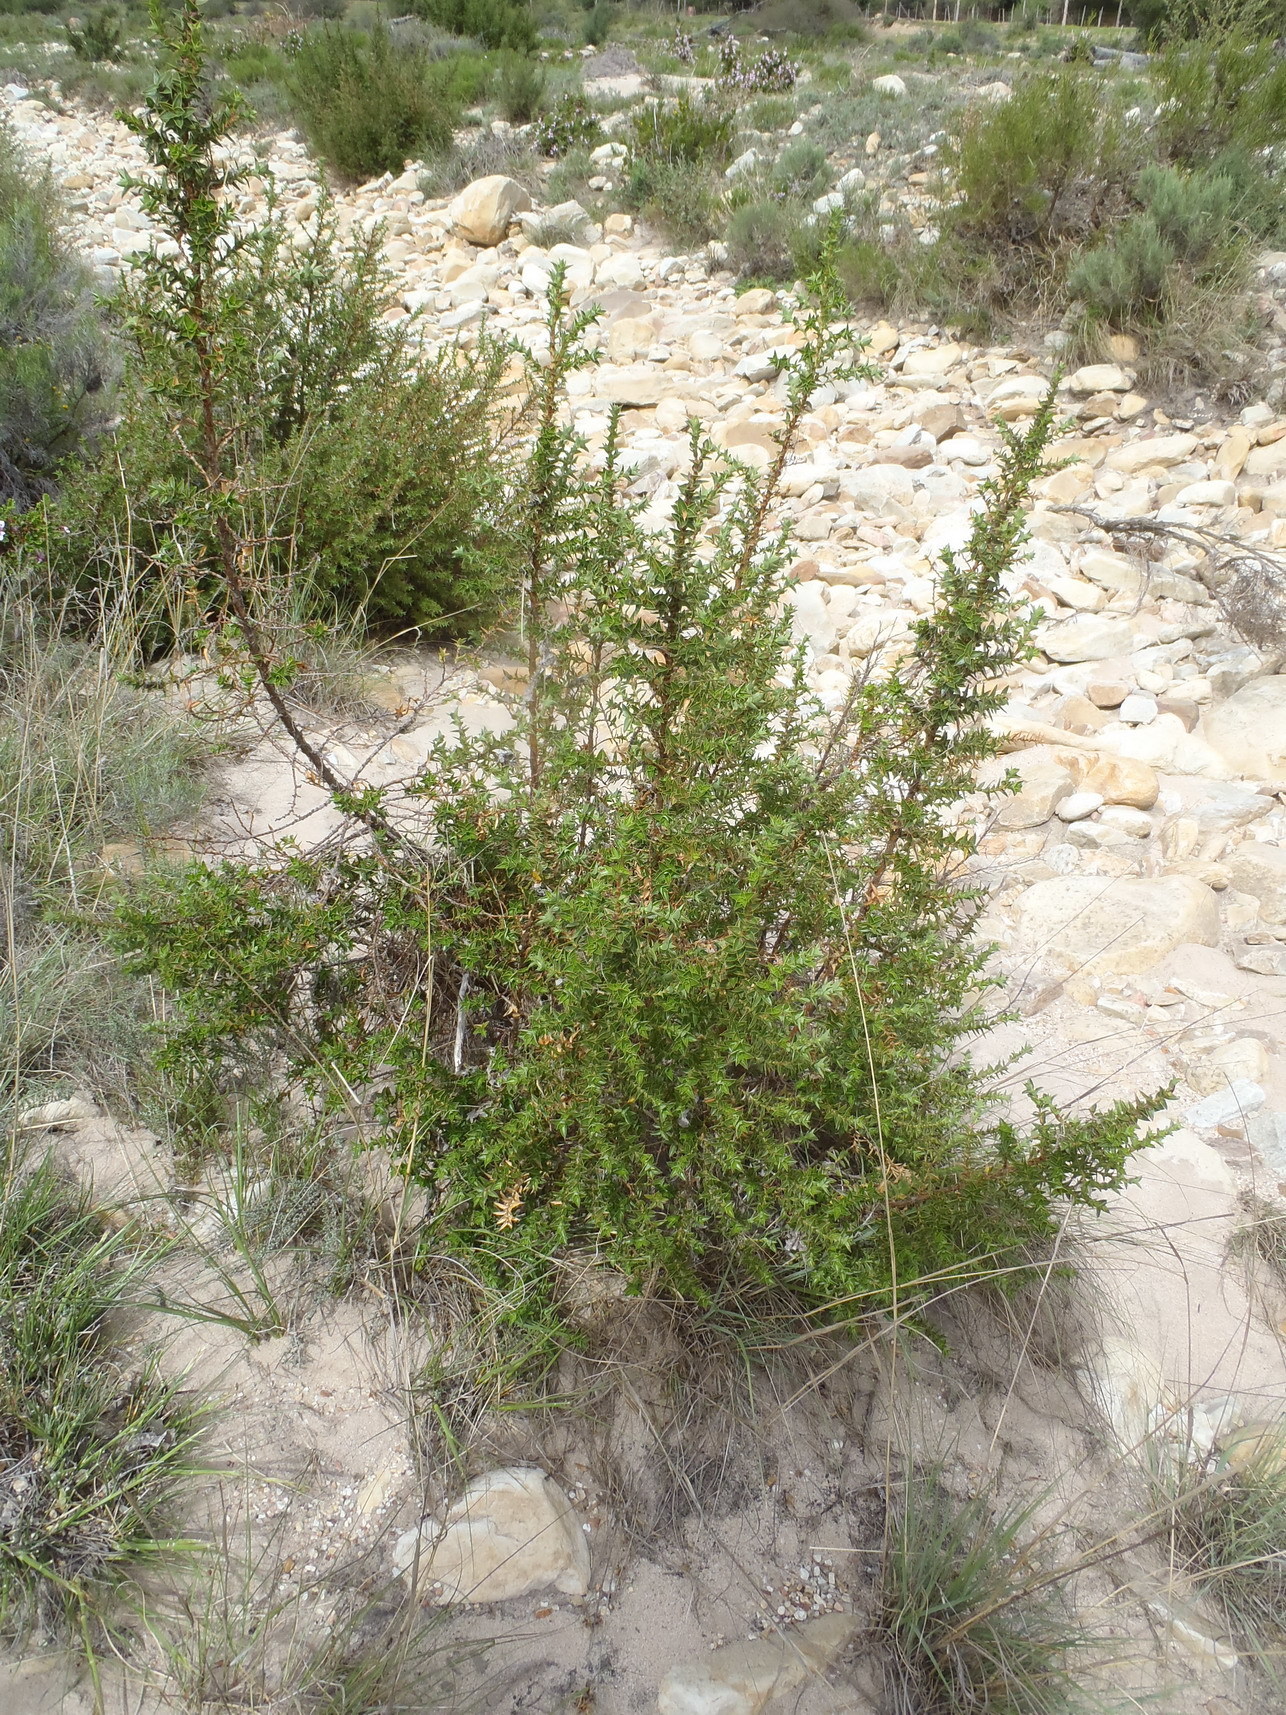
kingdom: Plantae
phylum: Tracheophyta
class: Magnoliopsida
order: Rosales
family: Rosaceae
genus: Cliffortia
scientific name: Cliffortia ilicifolia
